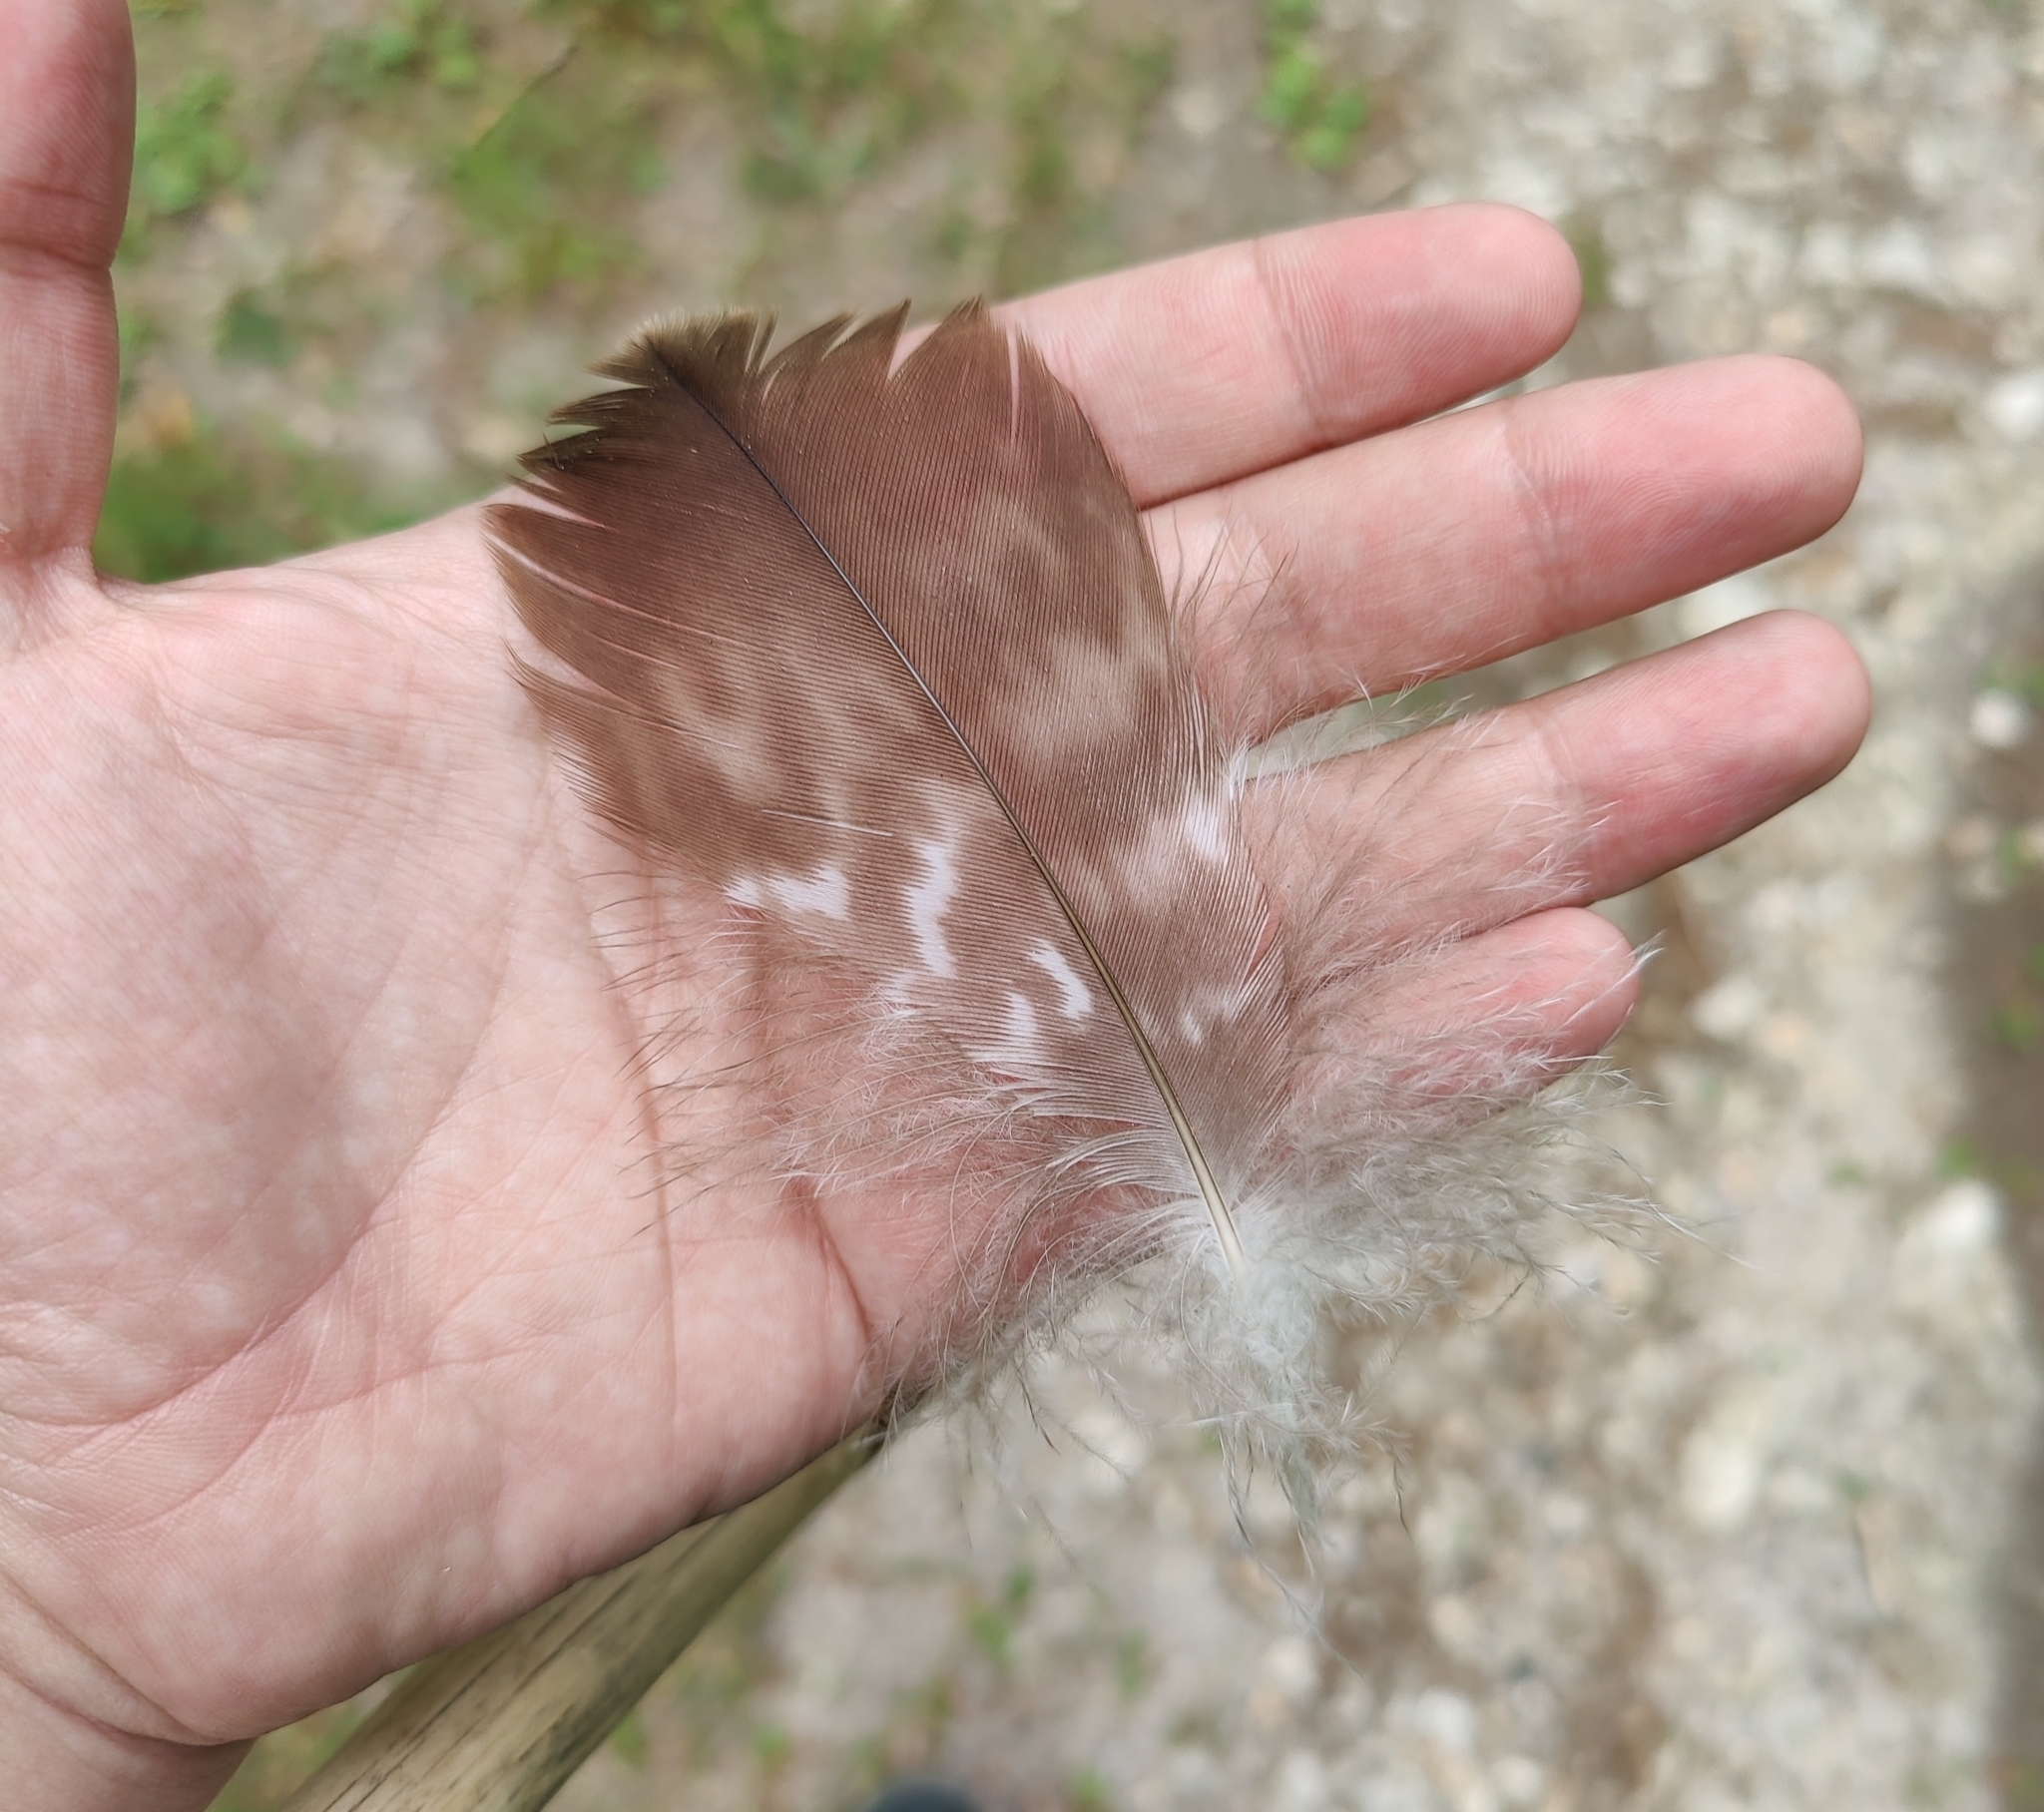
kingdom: Animalia
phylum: Chordata
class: Aves
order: Accipitriformes
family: Accipitridae
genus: Buteo
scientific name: Buteo buteo
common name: Common buzzard
